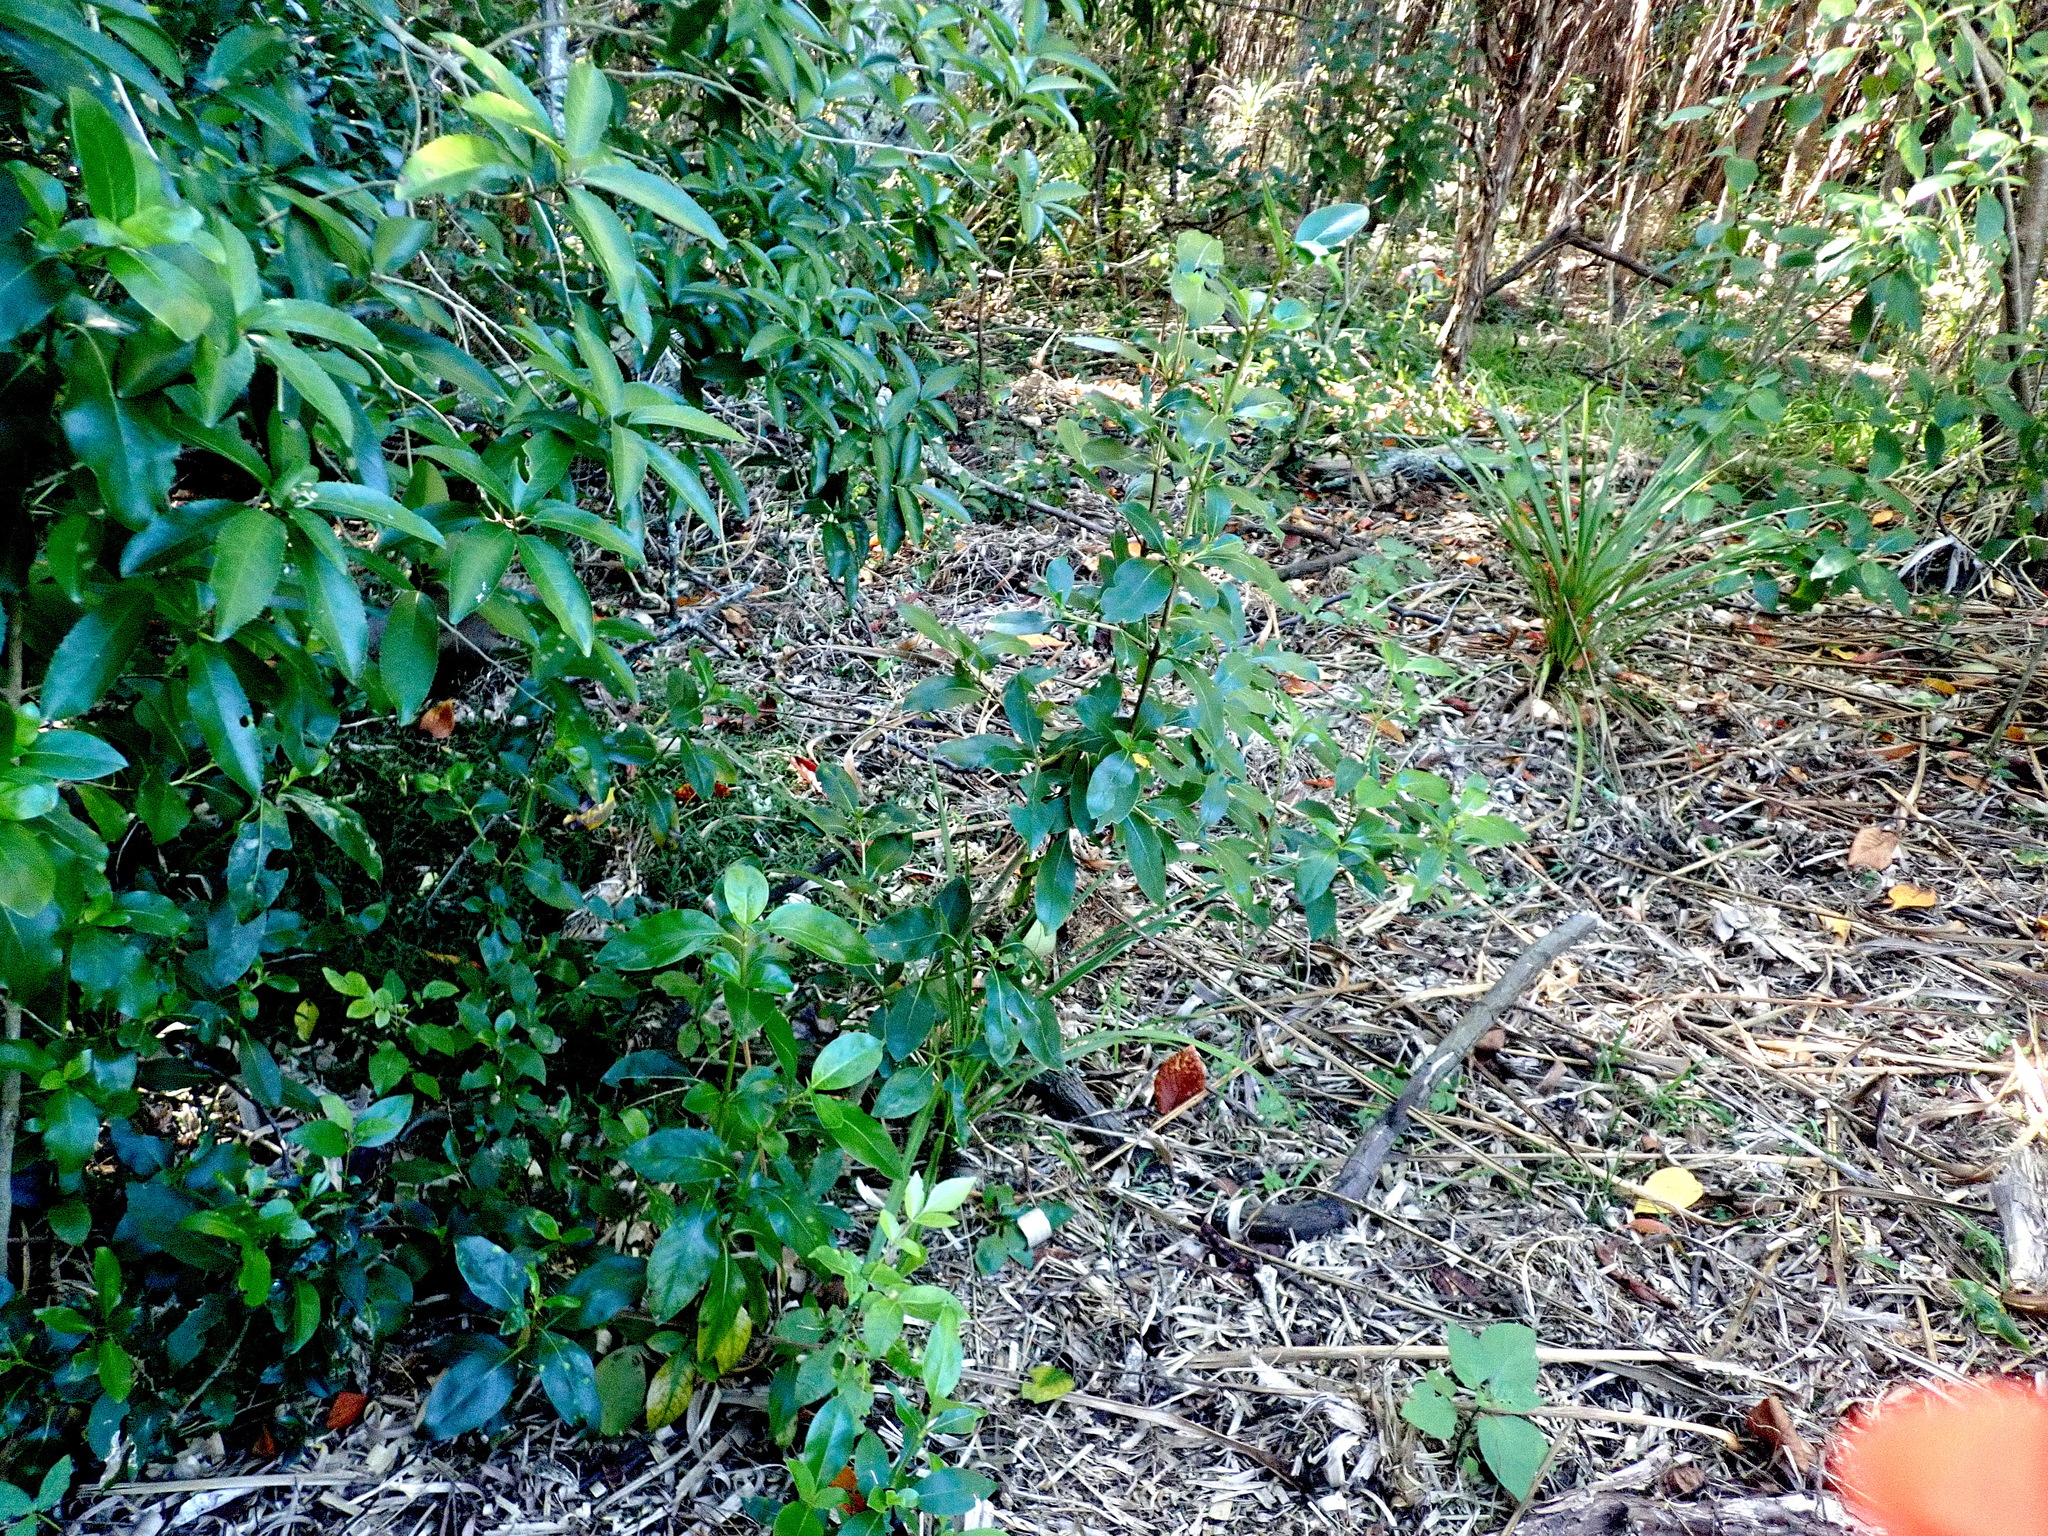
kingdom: Plantae
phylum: Tracheophyta
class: Magnoliopsida
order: Gentianales
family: Rubiaceae
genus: Coprosma
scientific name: Coprosma robusta
